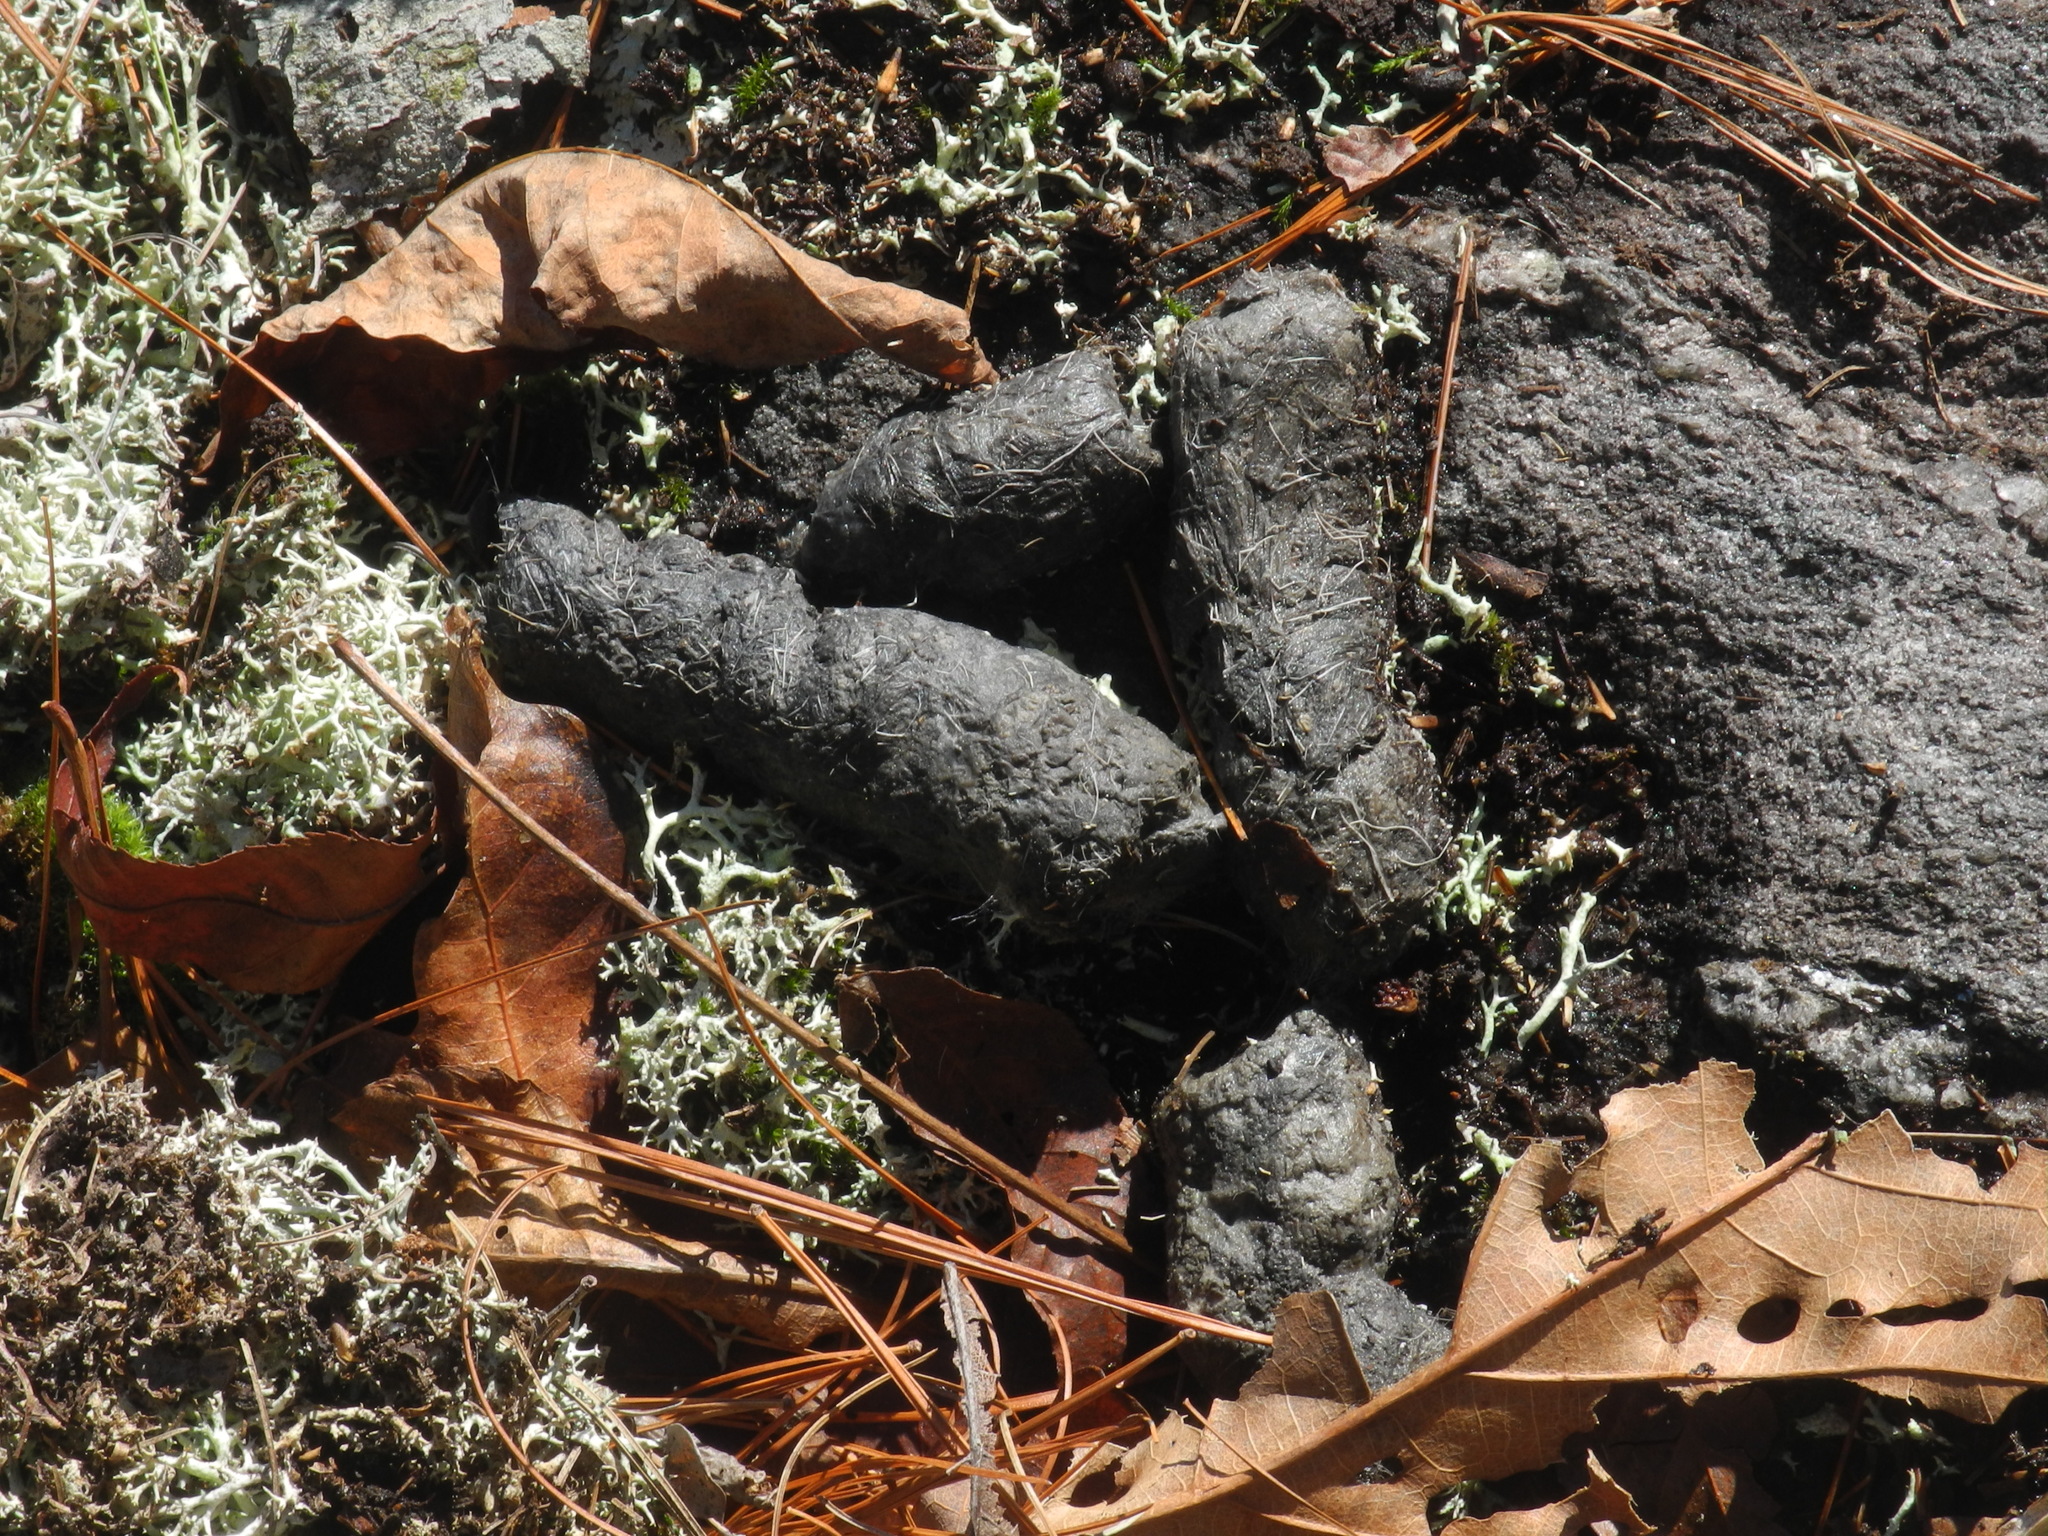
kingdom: Animalia
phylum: Chordata
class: Mammalia
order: Carnivora
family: Felidae
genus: Lynx
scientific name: Lynx rufus
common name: Bobcat
